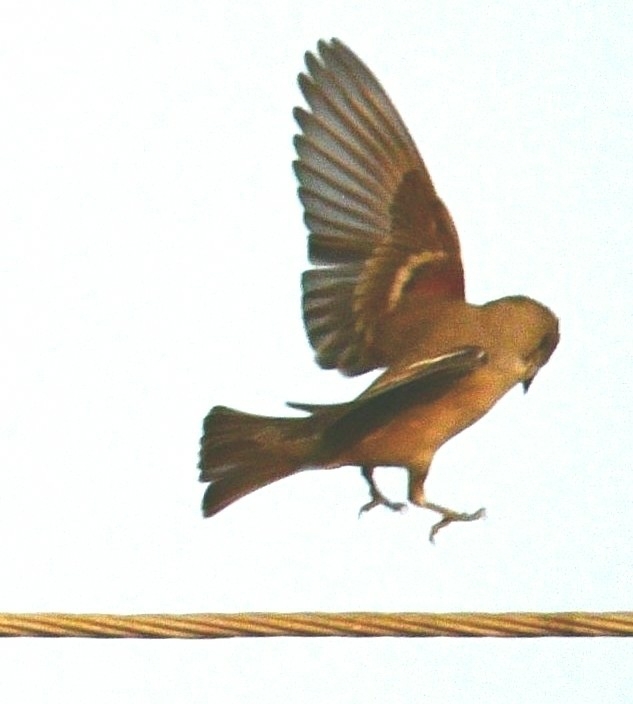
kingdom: Animalia
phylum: Chordata
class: Aves
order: Passeriformes
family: Passeridae
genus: Gymnoris
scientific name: Gymnoris xanthocollis
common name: Yellow-throated sparrow
